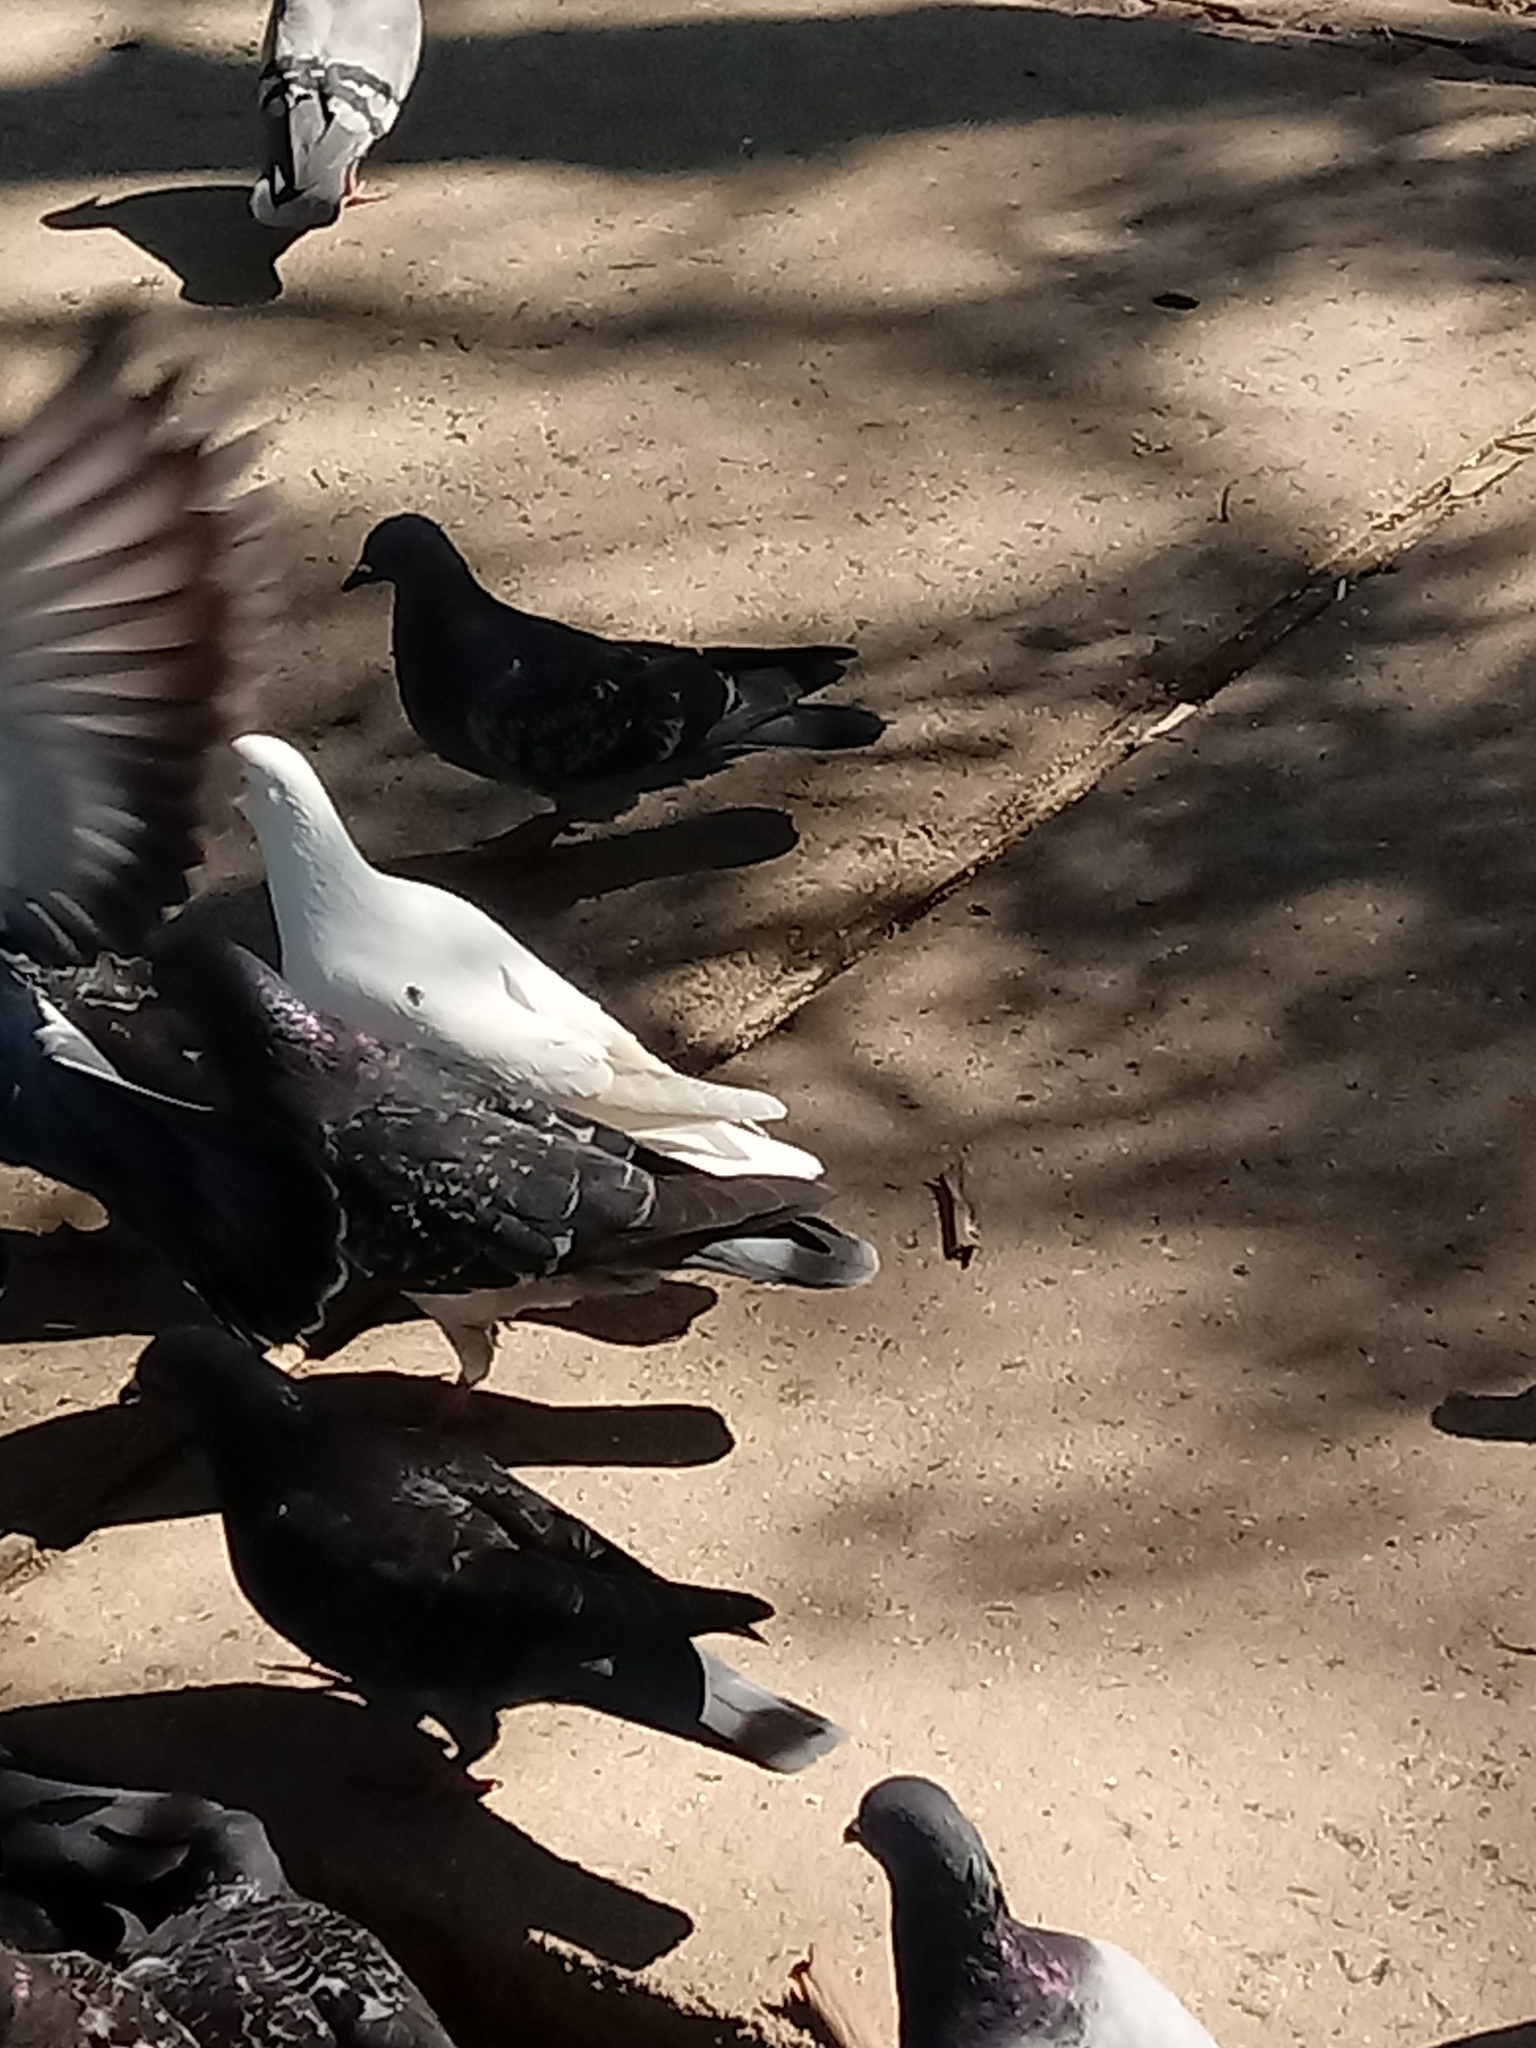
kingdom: Animalia
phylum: Chordata
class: Aves
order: Columbiformes
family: Columbidae
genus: Columba
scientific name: Columba livia
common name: Rock pigeon
